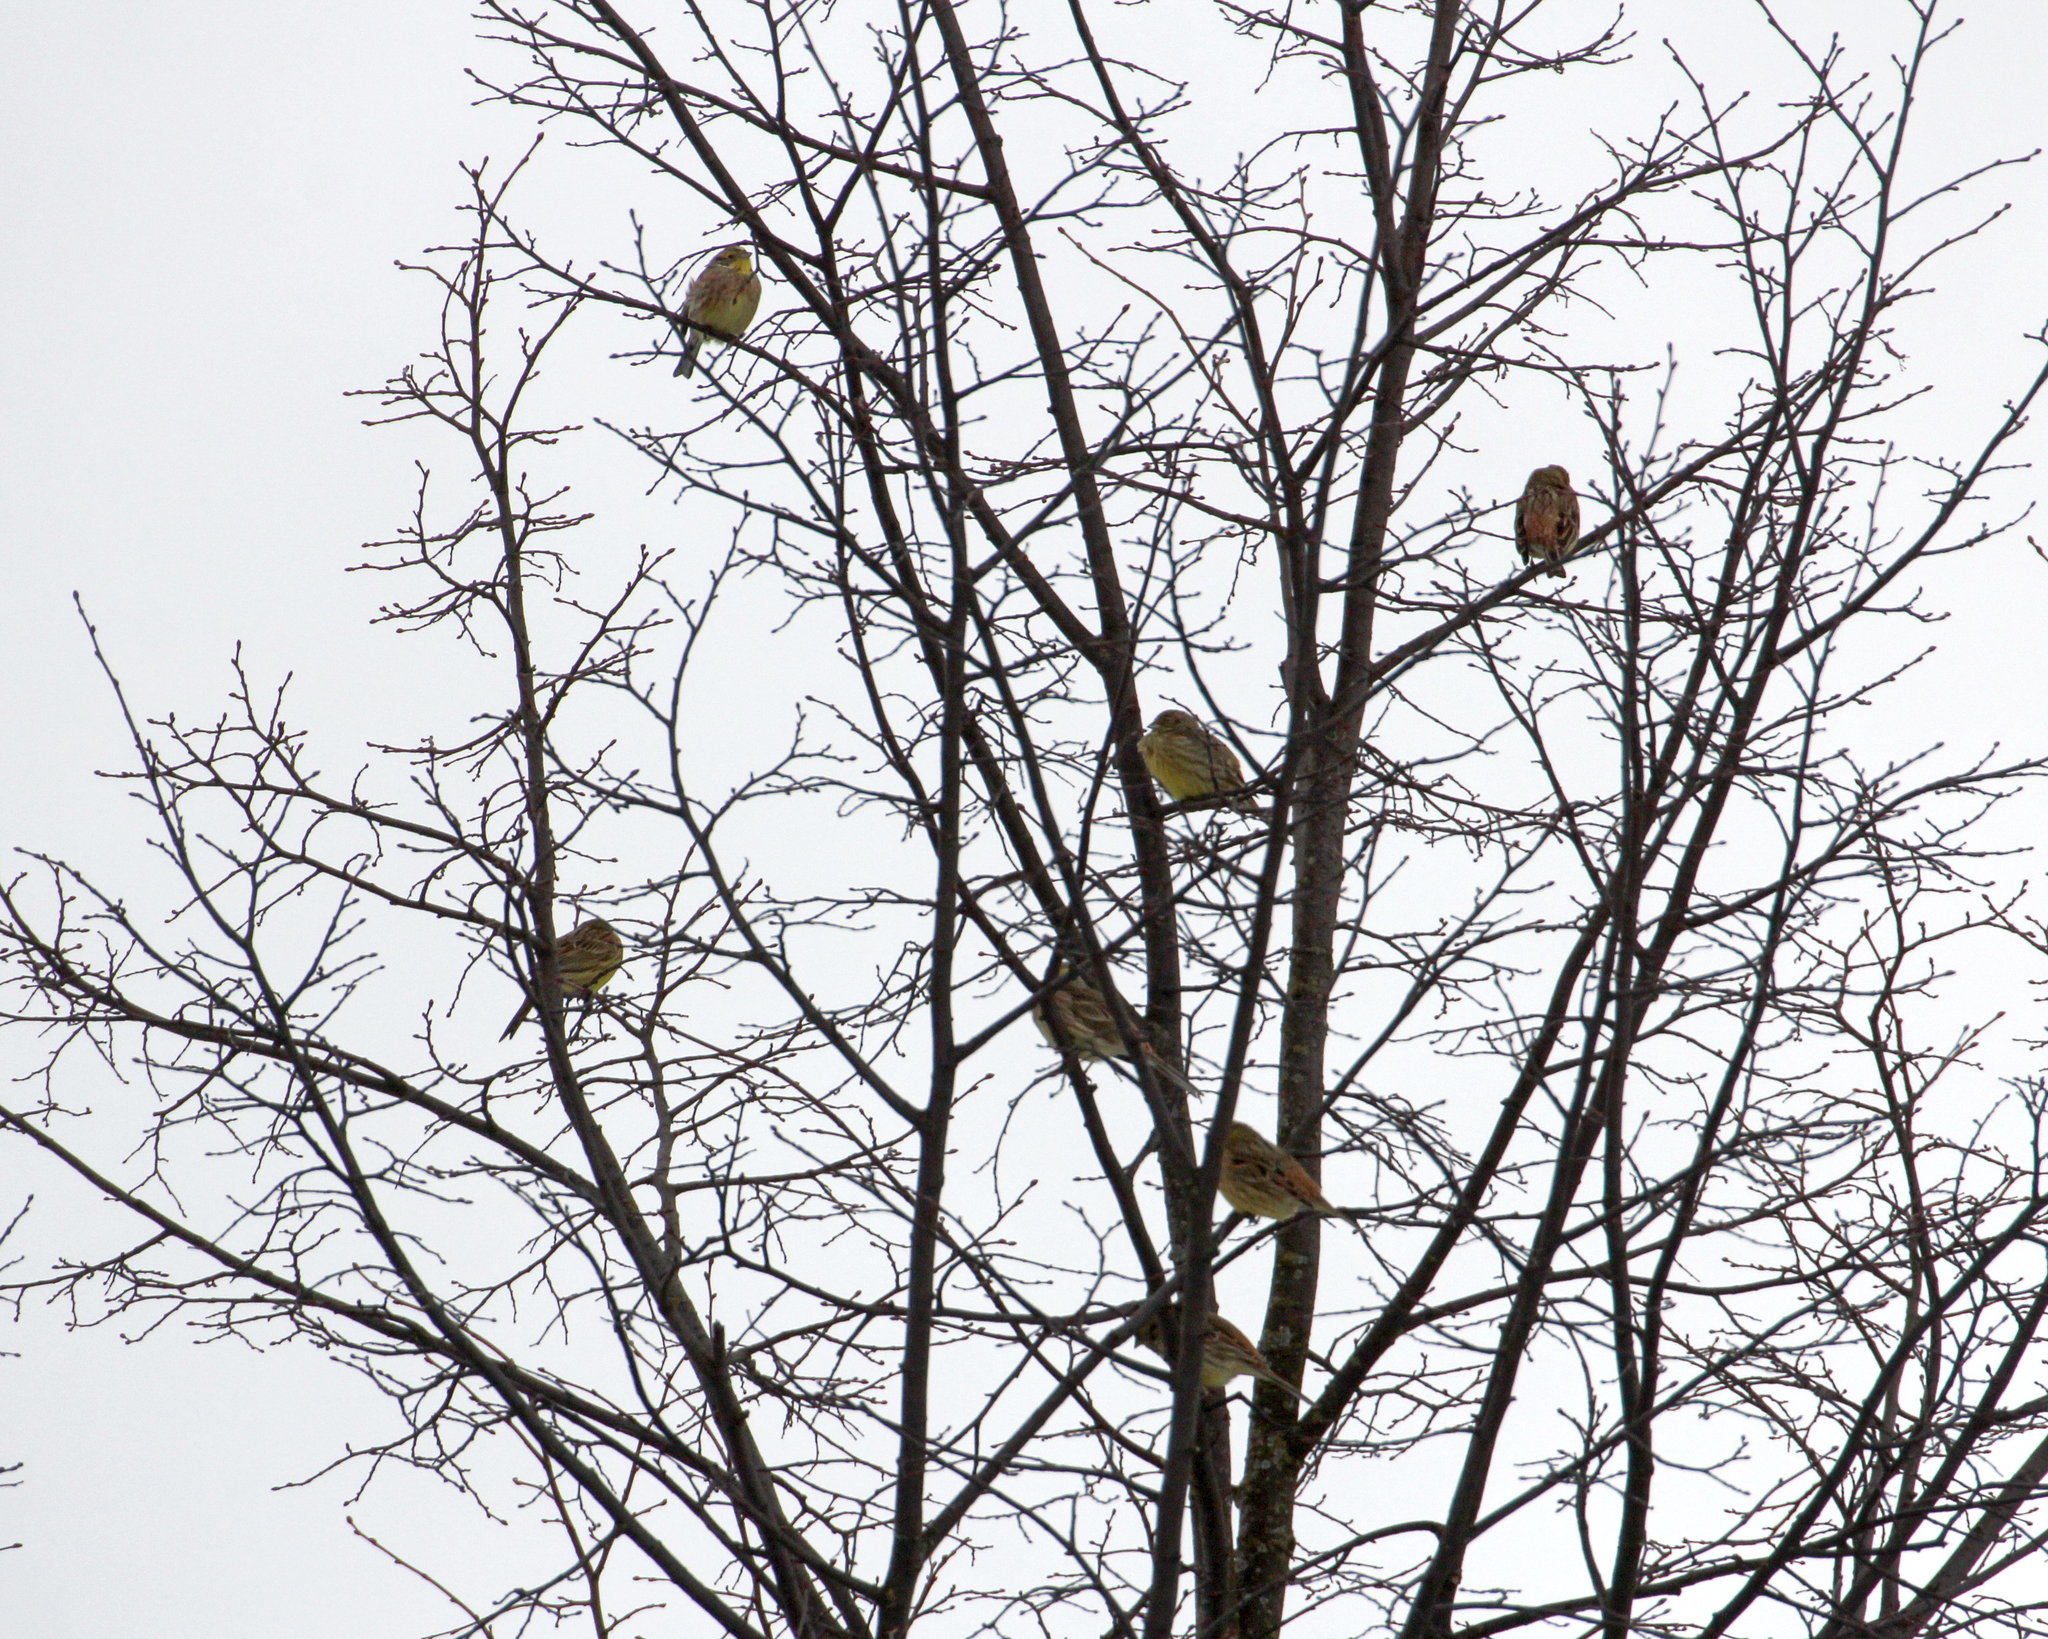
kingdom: Animalia
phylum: Chordata
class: Aves
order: Passeriformes
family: Emberizidae
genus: Emberiza
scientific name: Emberiza citrinella
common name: Yellowhammer
